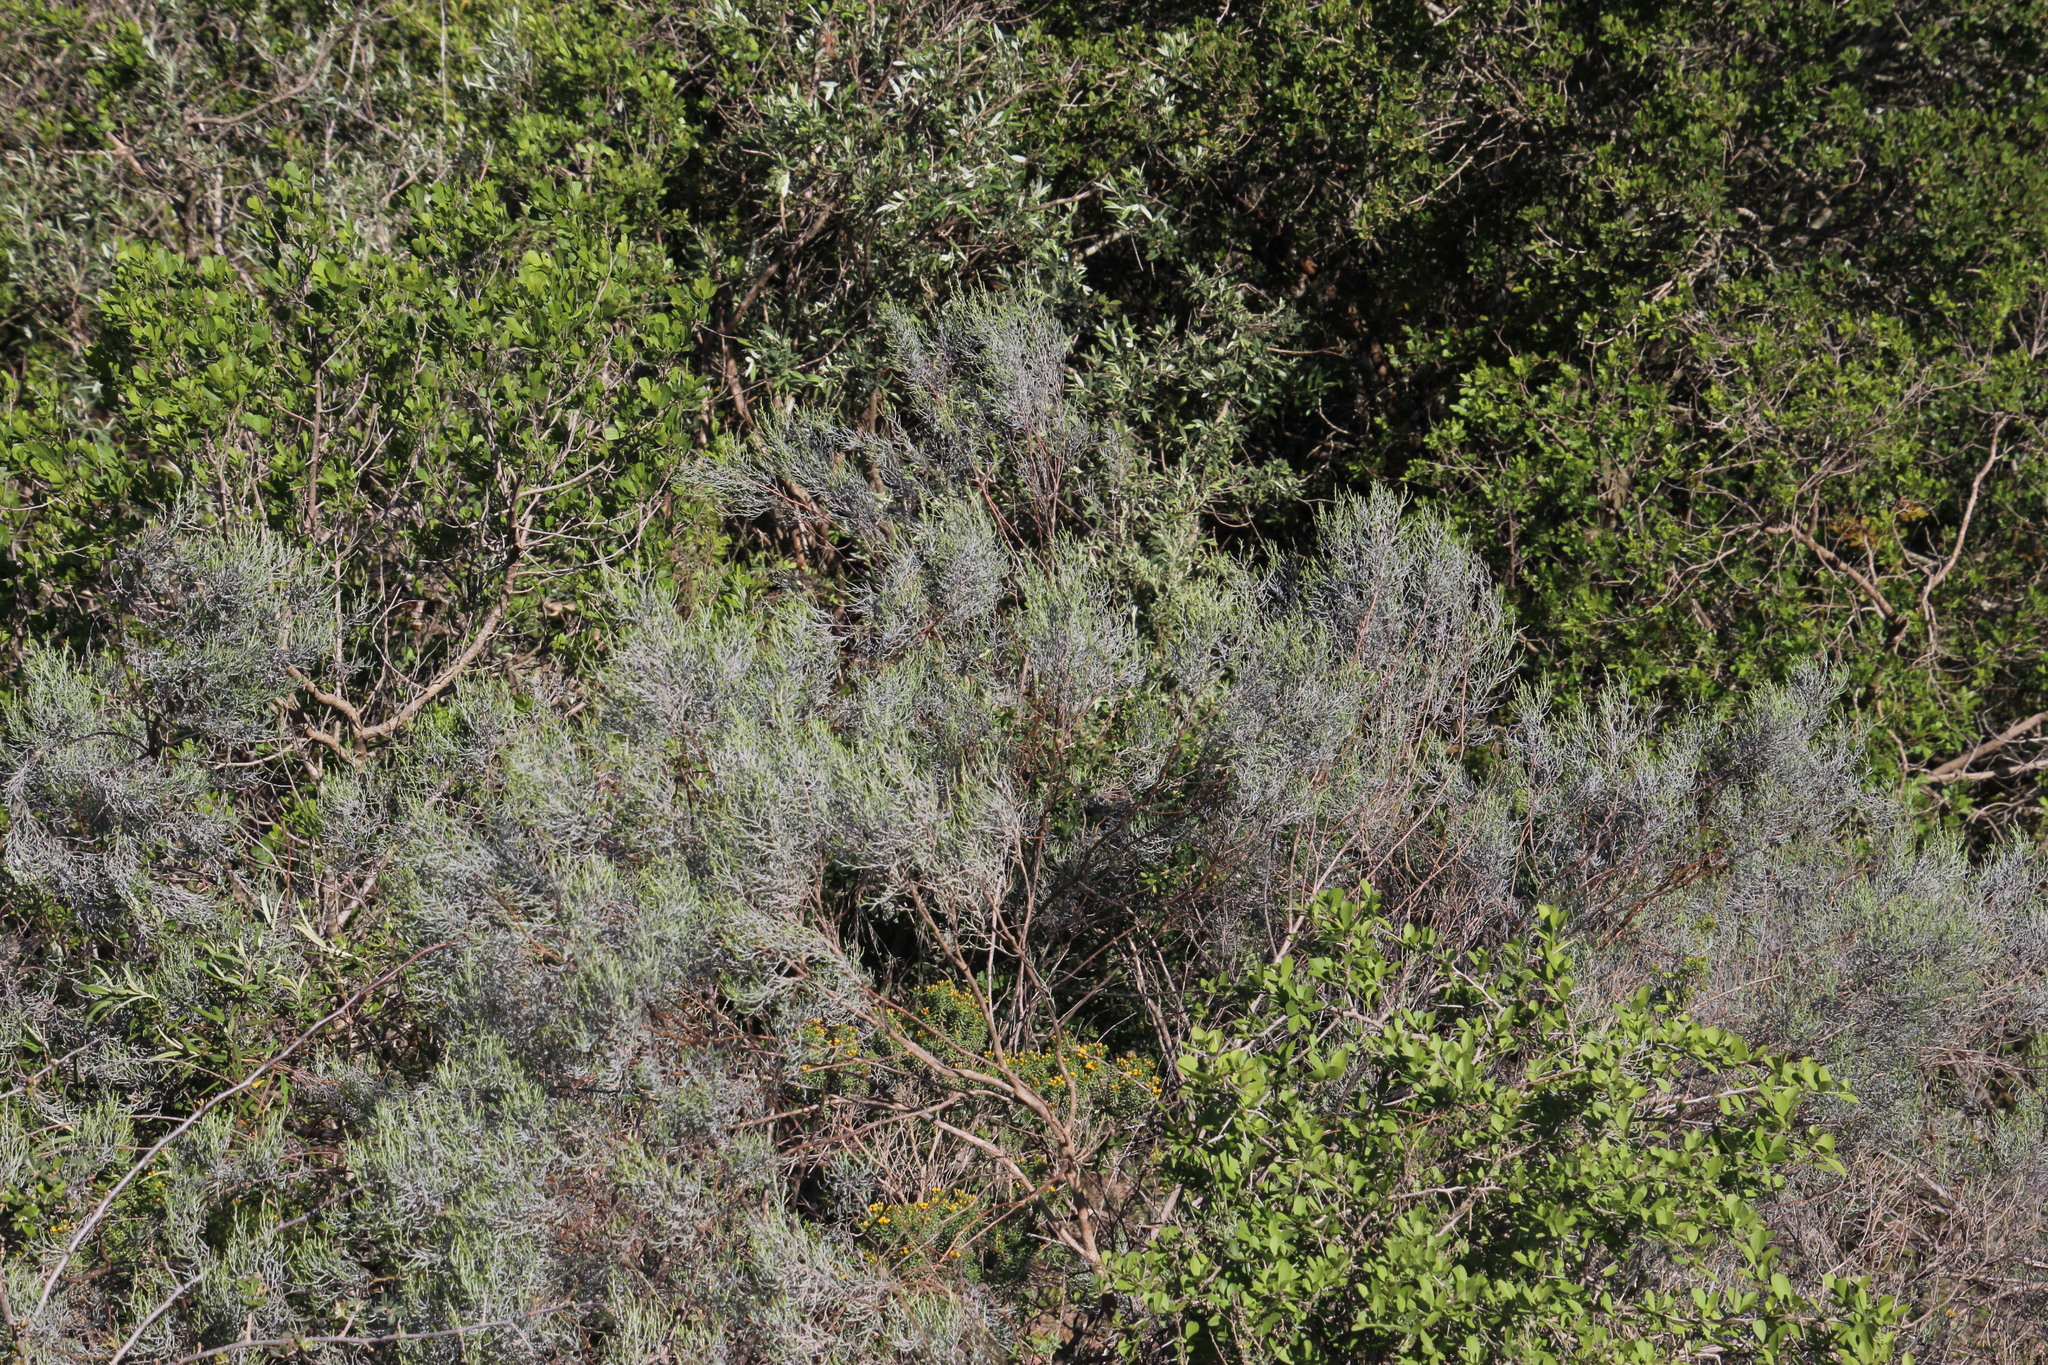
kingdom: Plantae
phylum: Tracheophyta
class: Magnoliopsida
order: Asterales
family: Asteraceae
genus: Dicerothamnus
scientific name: Dicerothamnus rhinocerotis
